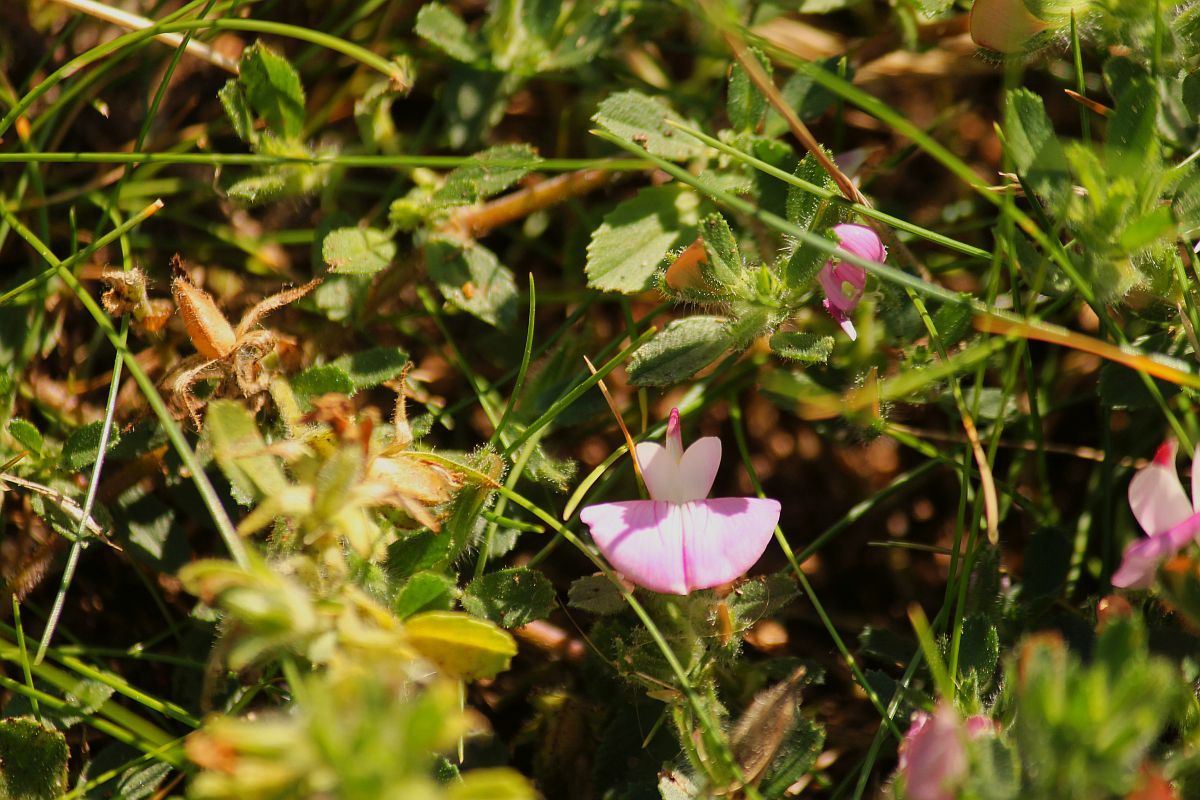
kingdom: Plantae
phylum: Tracheophyta
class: Magnoliopsida
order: Fabales
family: Fabaceae
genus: Ononis
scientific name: Ononis spinosa
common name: Spiny restharrow
